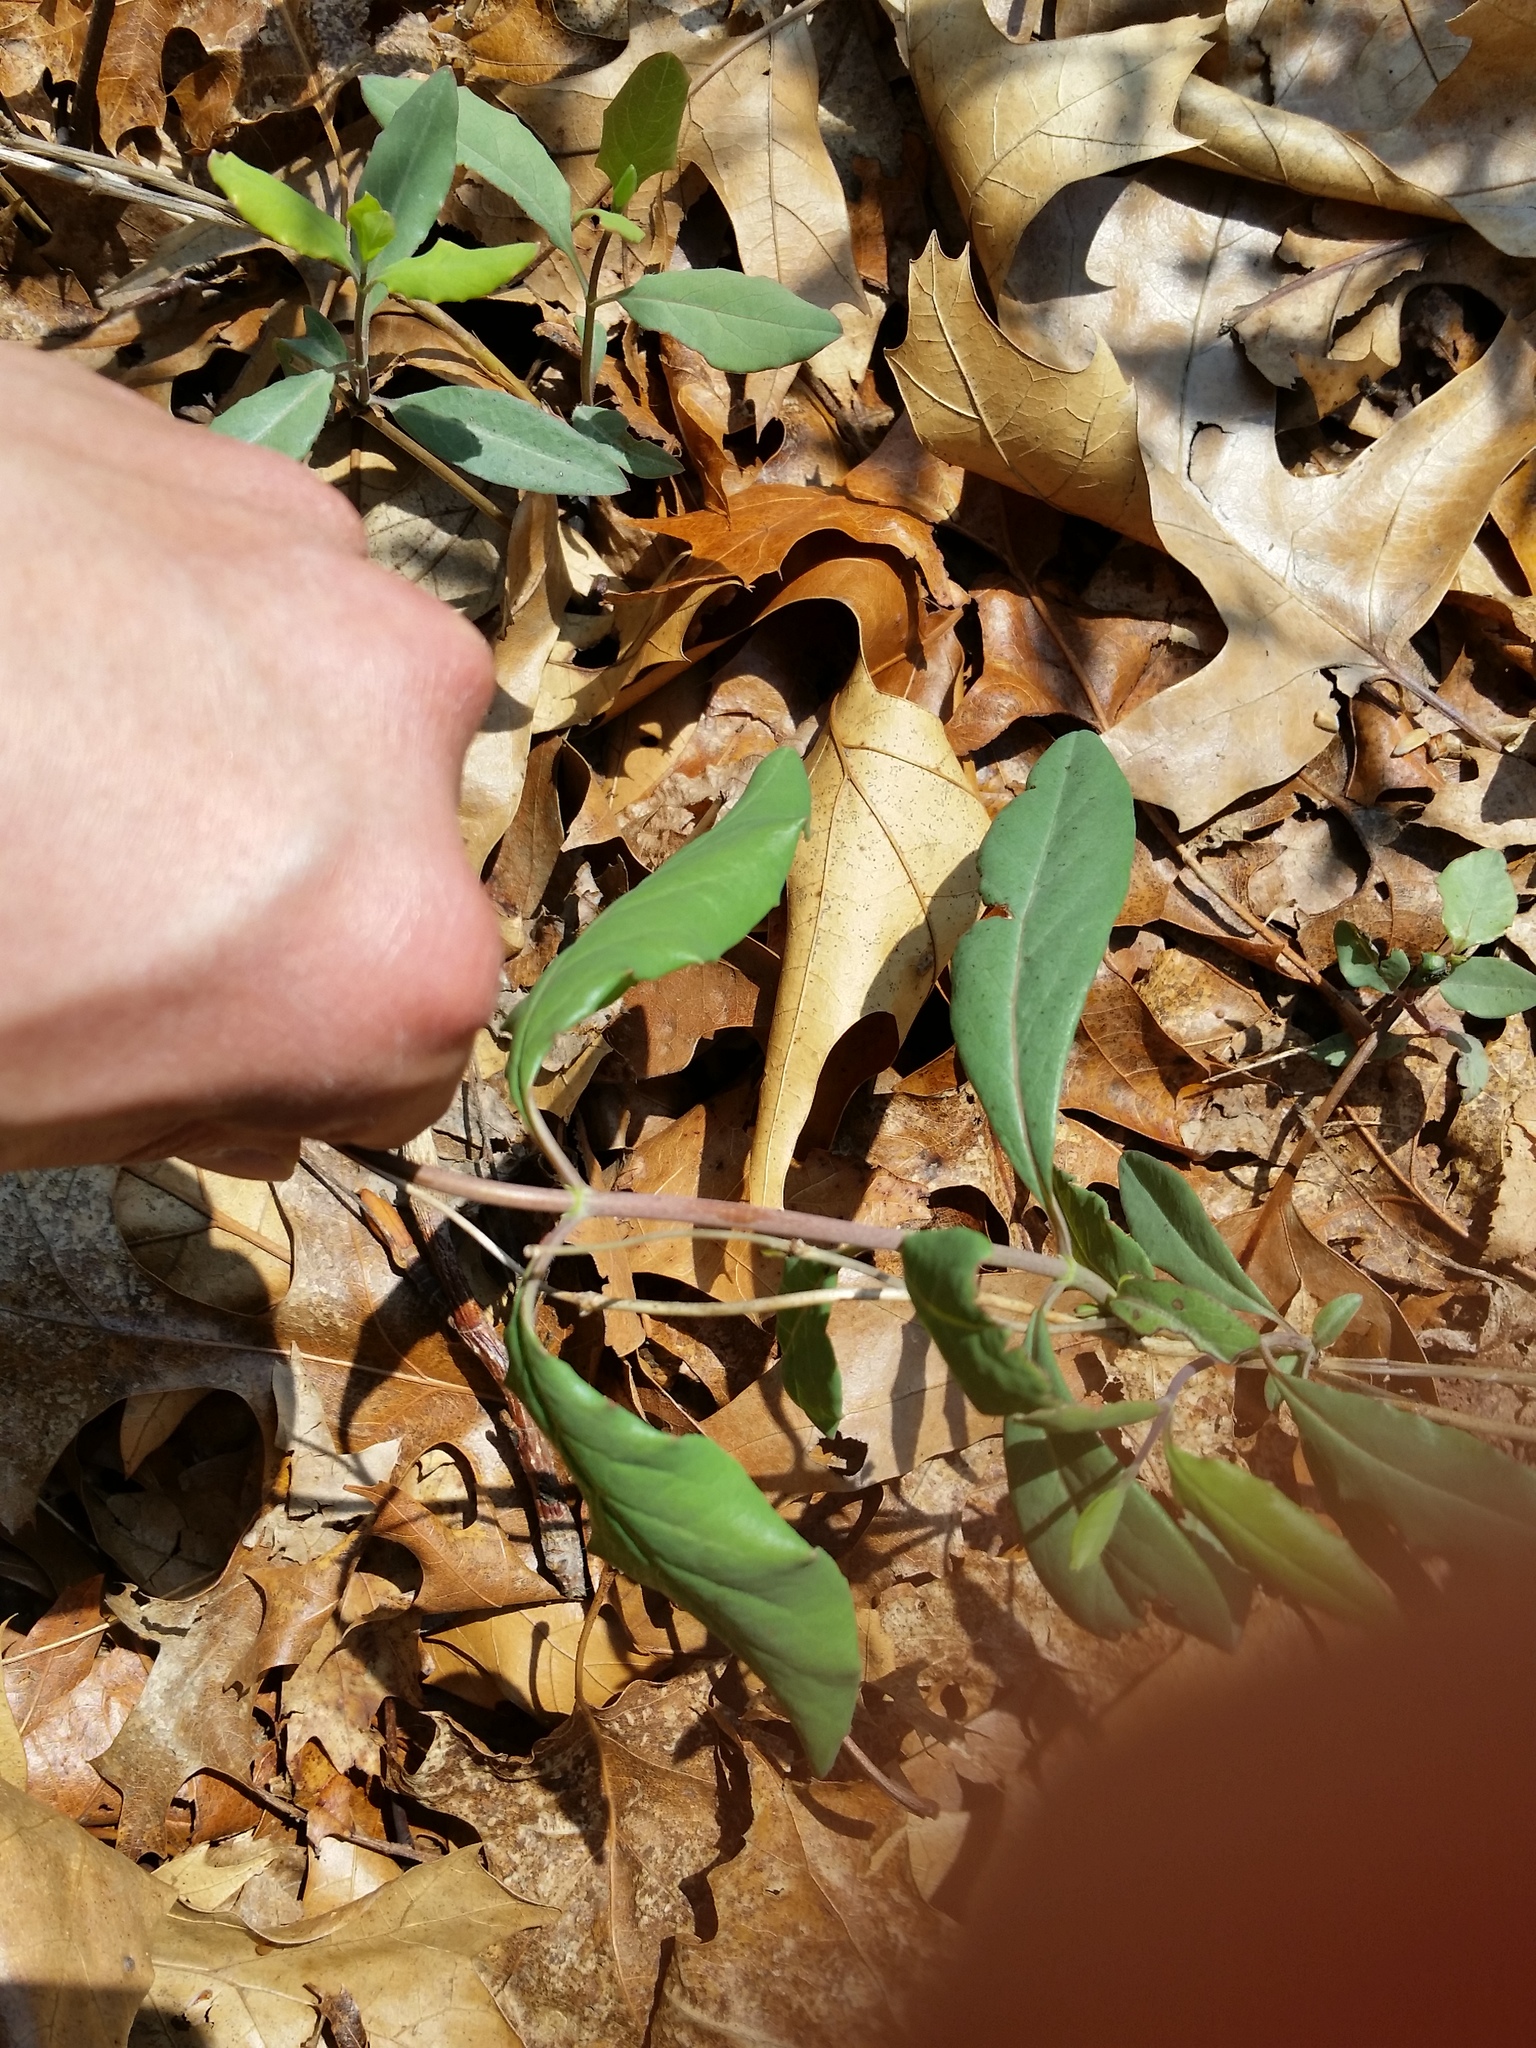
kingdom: Plantae
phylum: Tracheophyta
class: Magnoliopsida
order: Dipsacales
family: Caprifoliaceae
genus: Lonicera
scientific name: Lonicera sempervirens
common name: Coral honeysuckle
